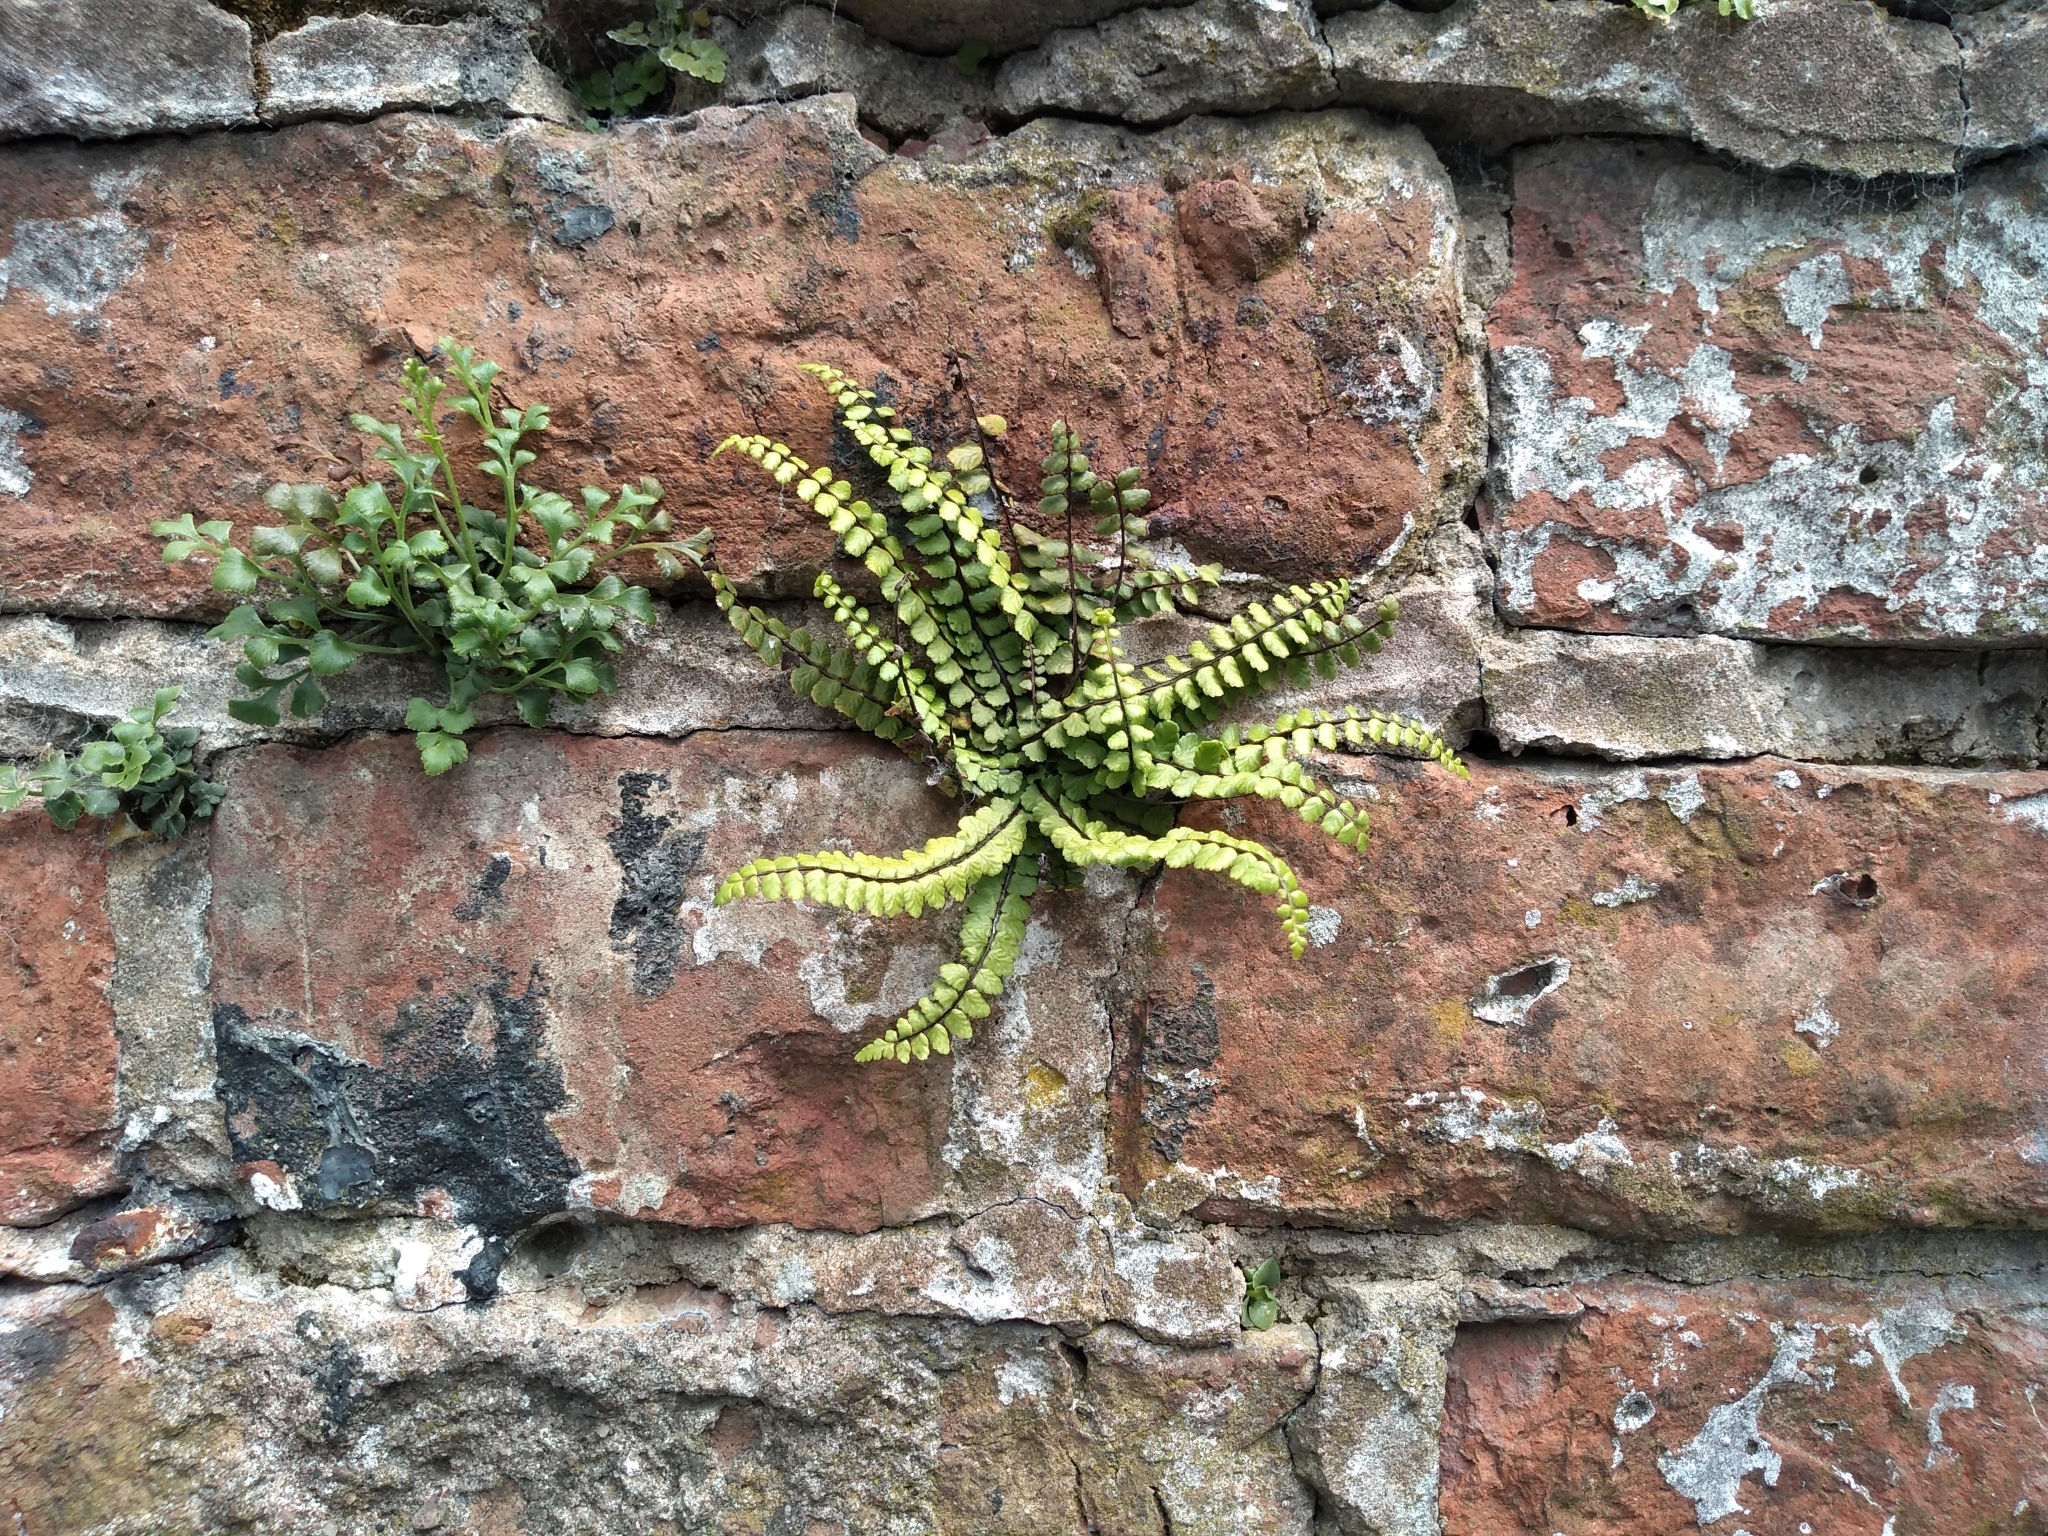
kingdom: Plantae
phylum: Tracheophyta
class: Polypodiopsida
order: Polypodiales
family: Aspleniaceae
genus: Asplenium
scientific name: Asplenium trichomanes
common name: Maidenhair spleenwort
